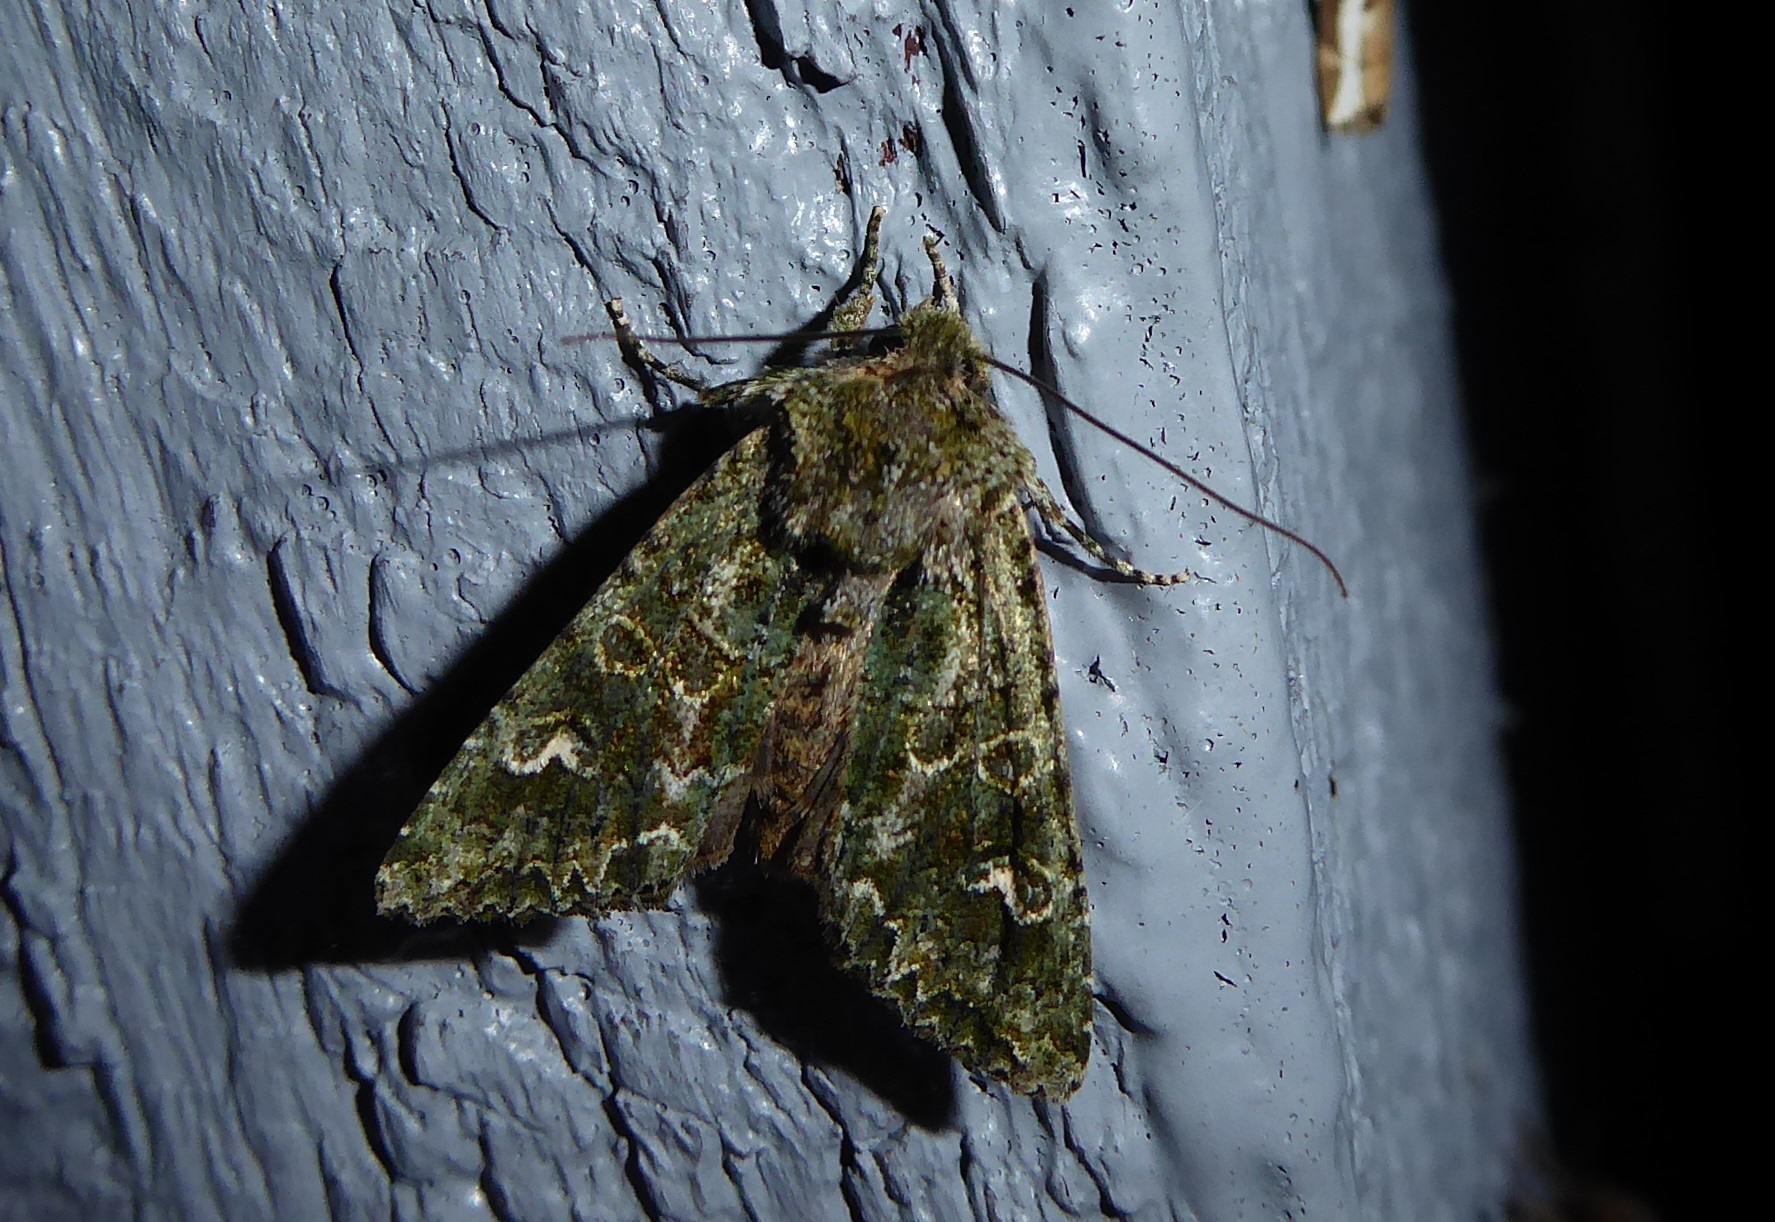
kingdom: Animalia
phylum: Arthropoda
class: Insecta
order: Lepidoptera
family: Noctuidae
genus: Ichneutica
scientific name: Ichneutica
